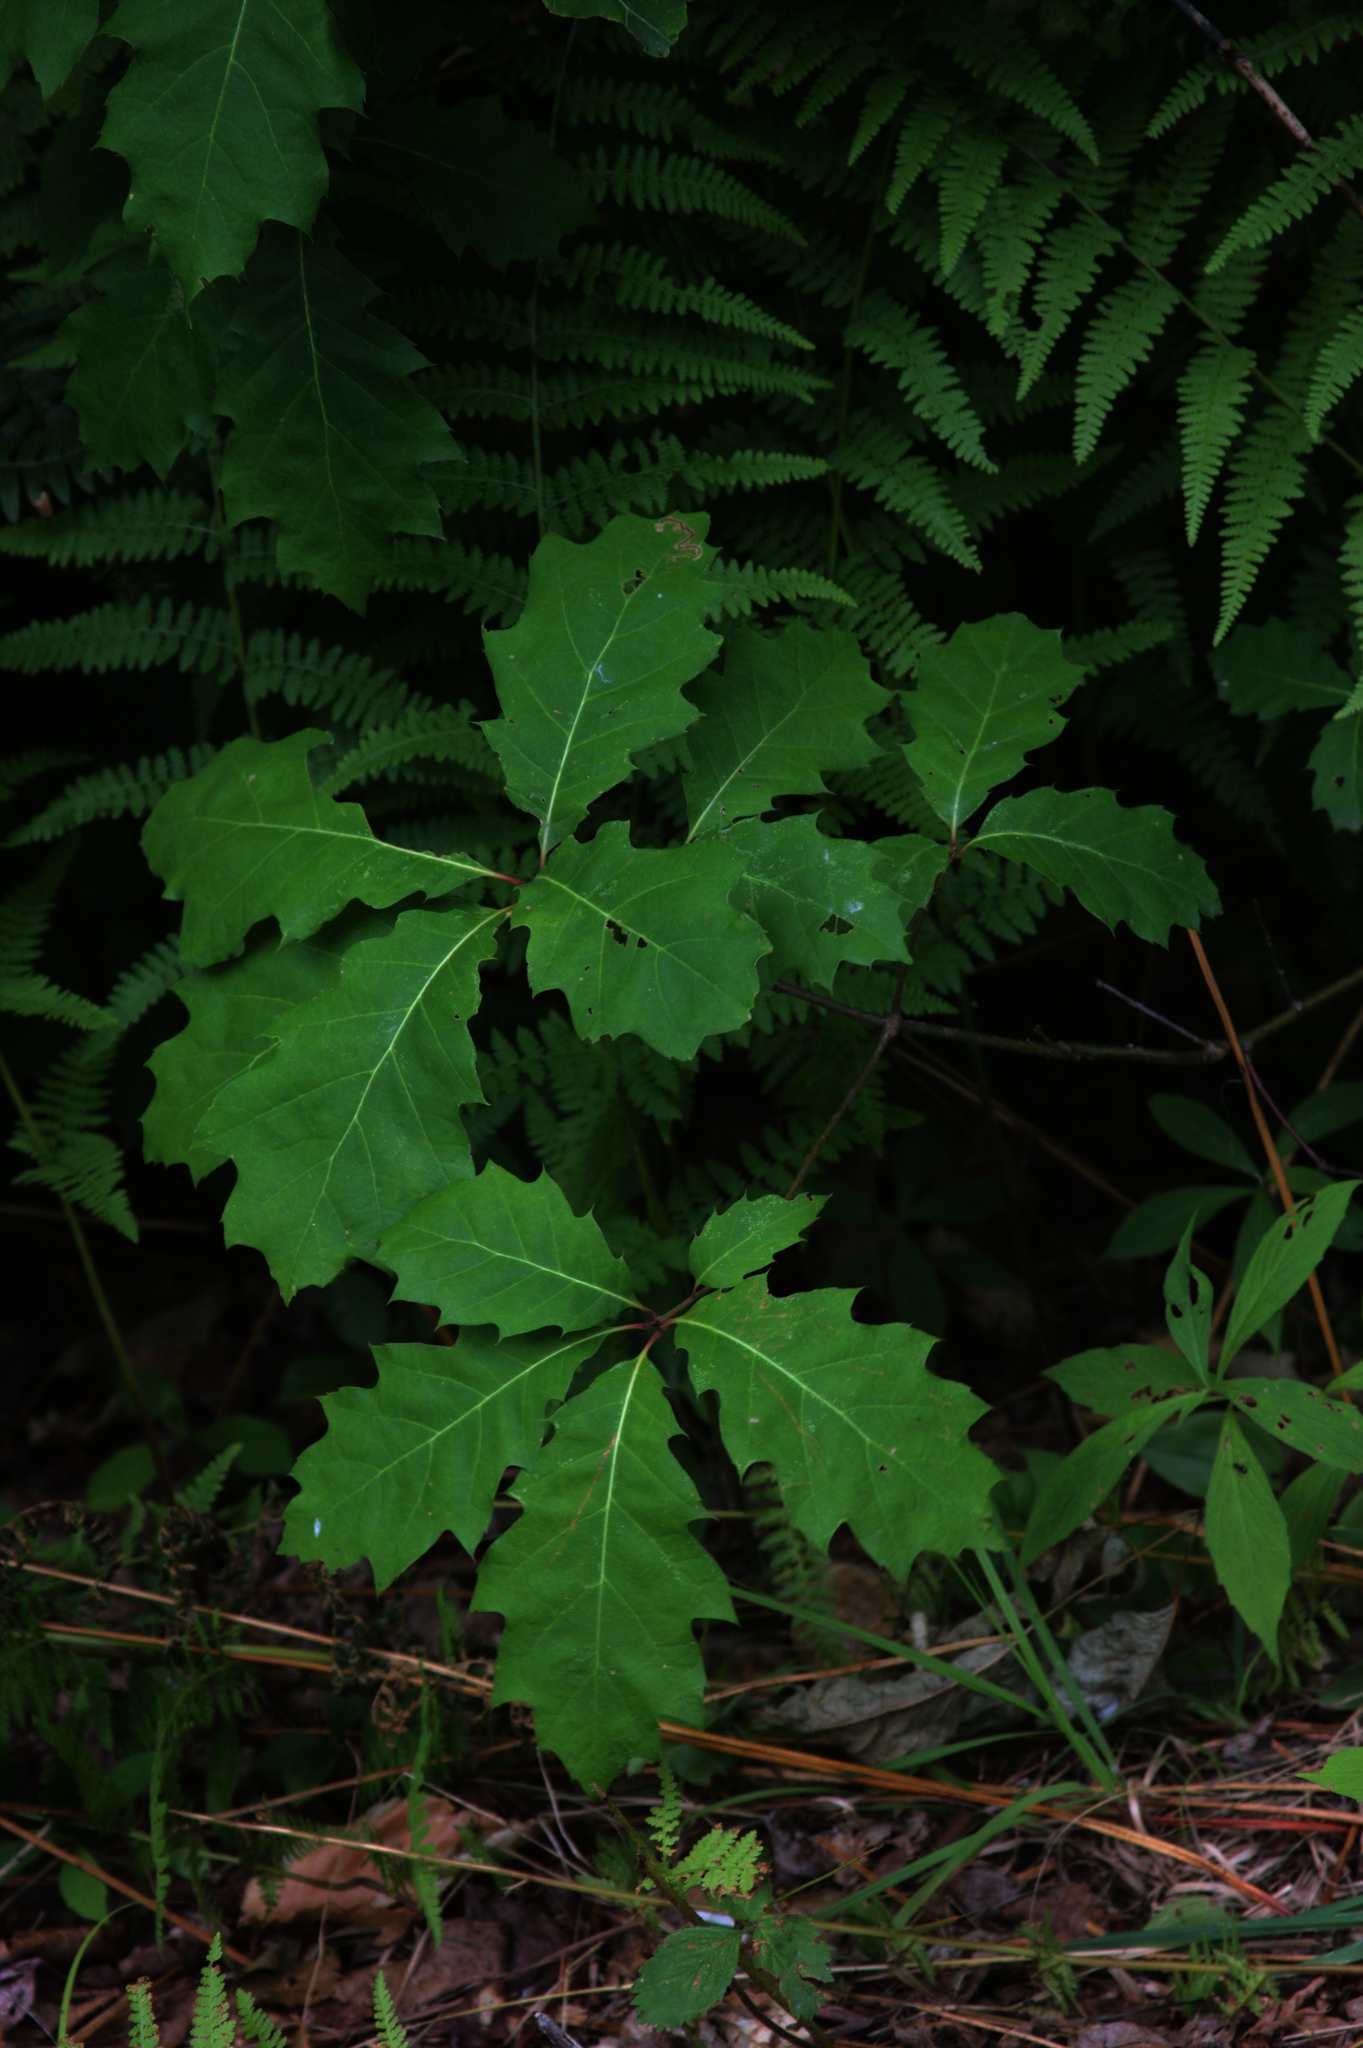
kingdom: Plantae
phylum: Tracheophyta
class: Magnoliopsida
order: Fagales
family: Fagaceae
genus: Quercus
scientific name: Quercus rubra
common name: Red oak
